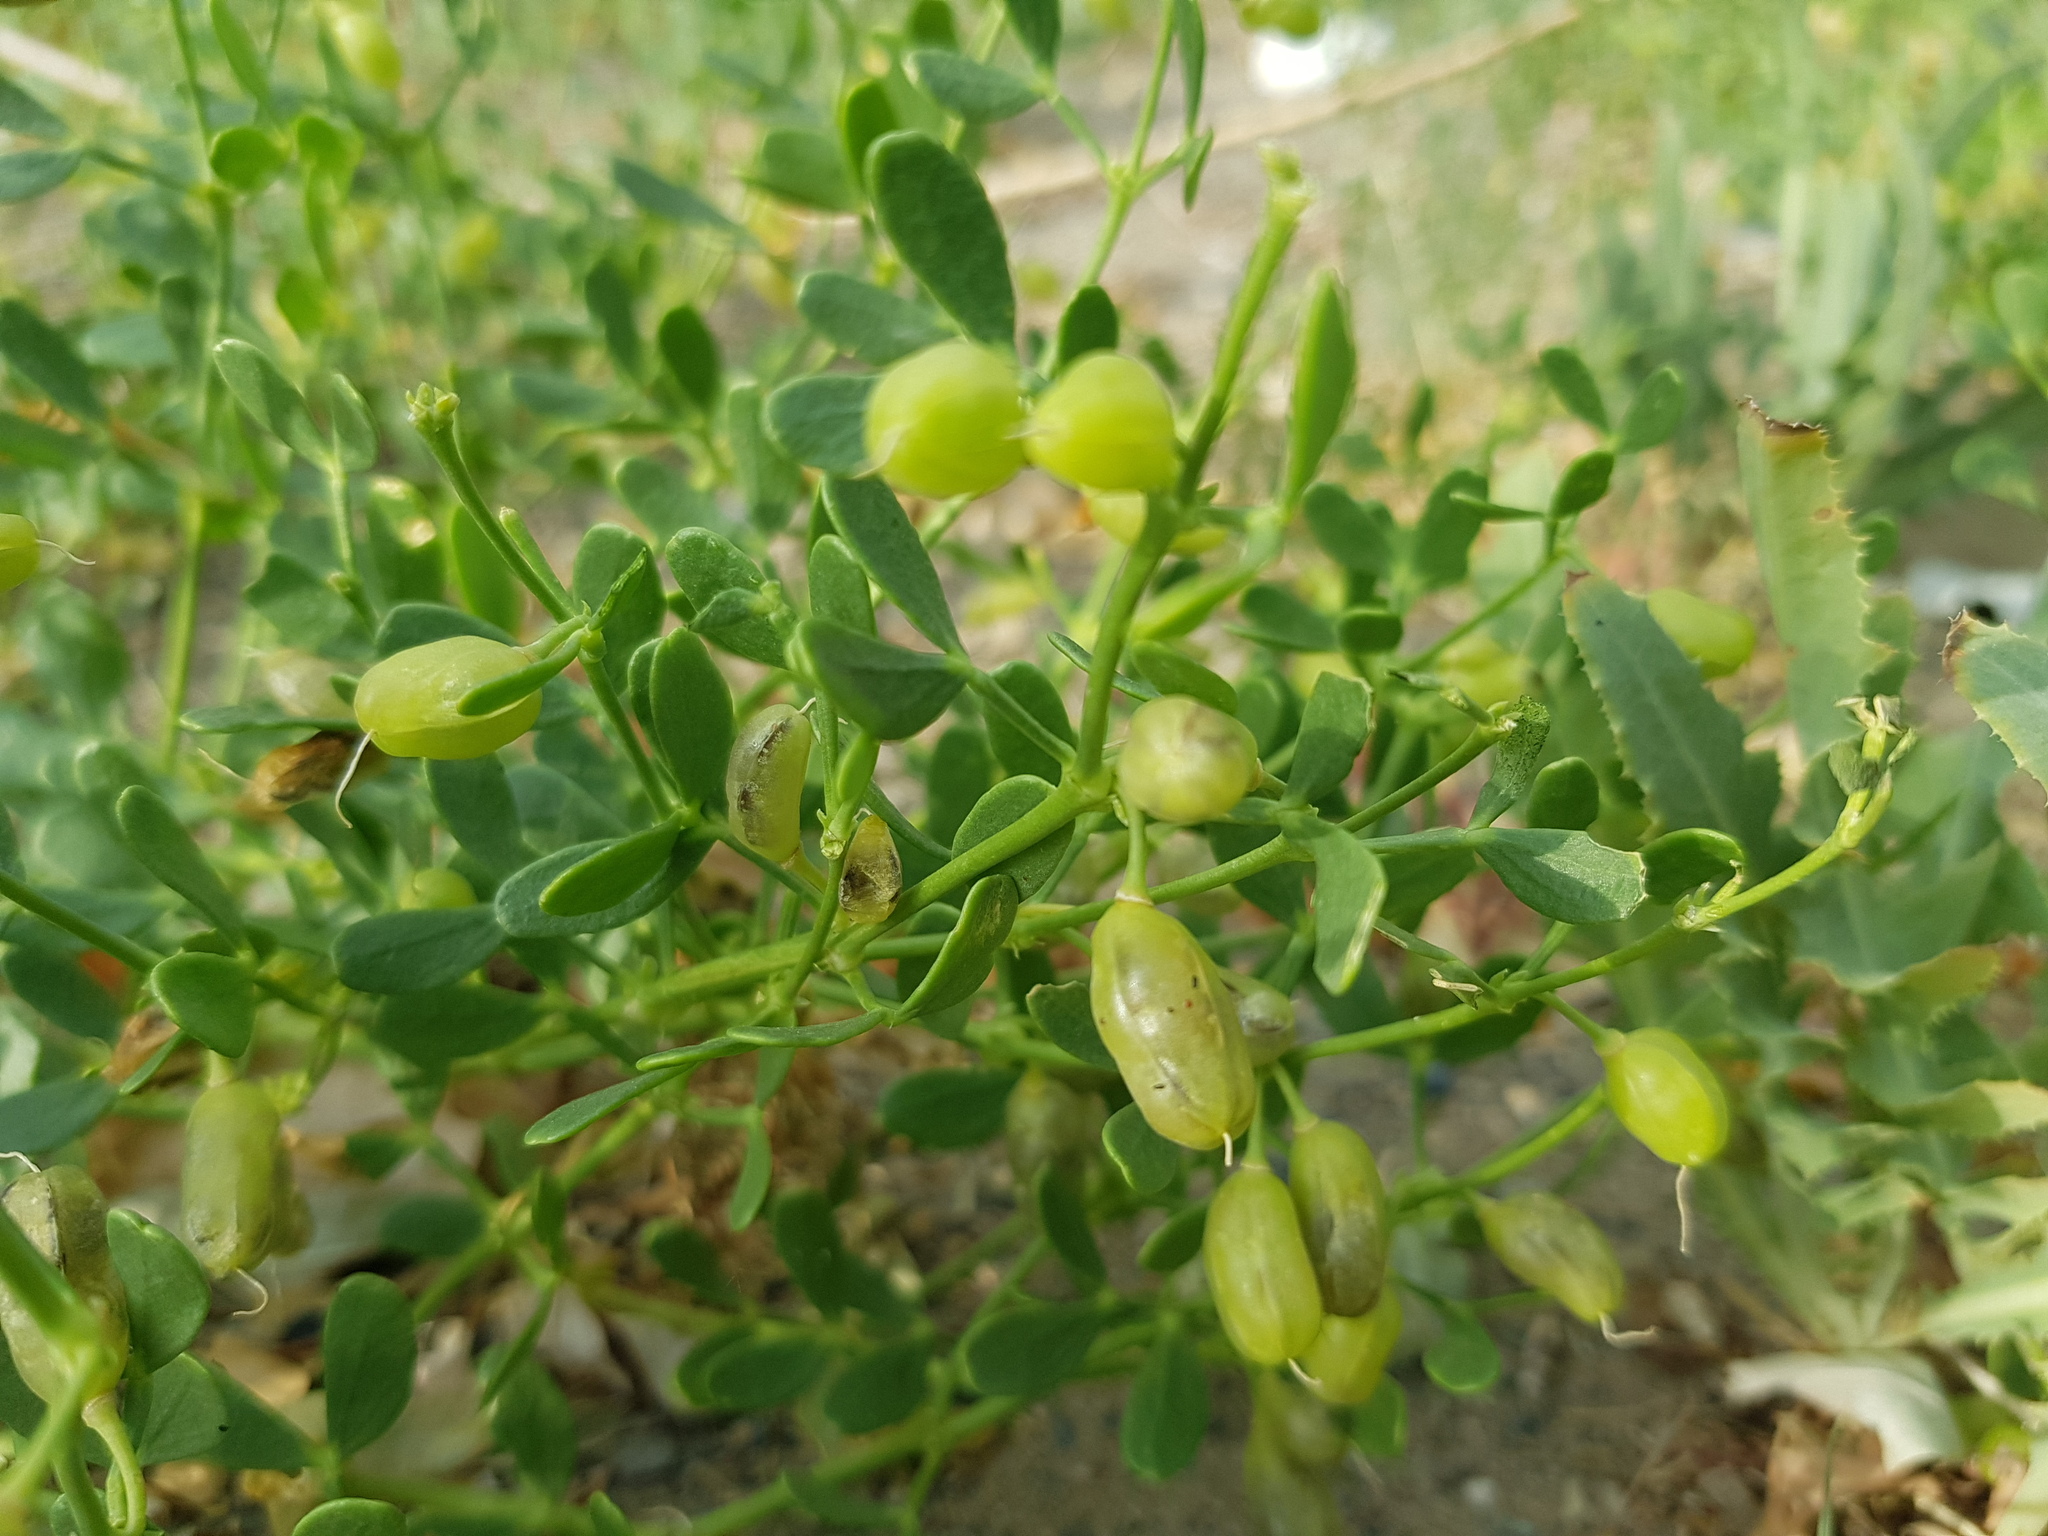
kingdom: Plantae
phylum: Tracheophyta
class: Magnoliopsida
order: Zygophyllales
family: Zygophyllaceae
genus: Zygophyllum
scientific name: Zygophyllum brachypterum
